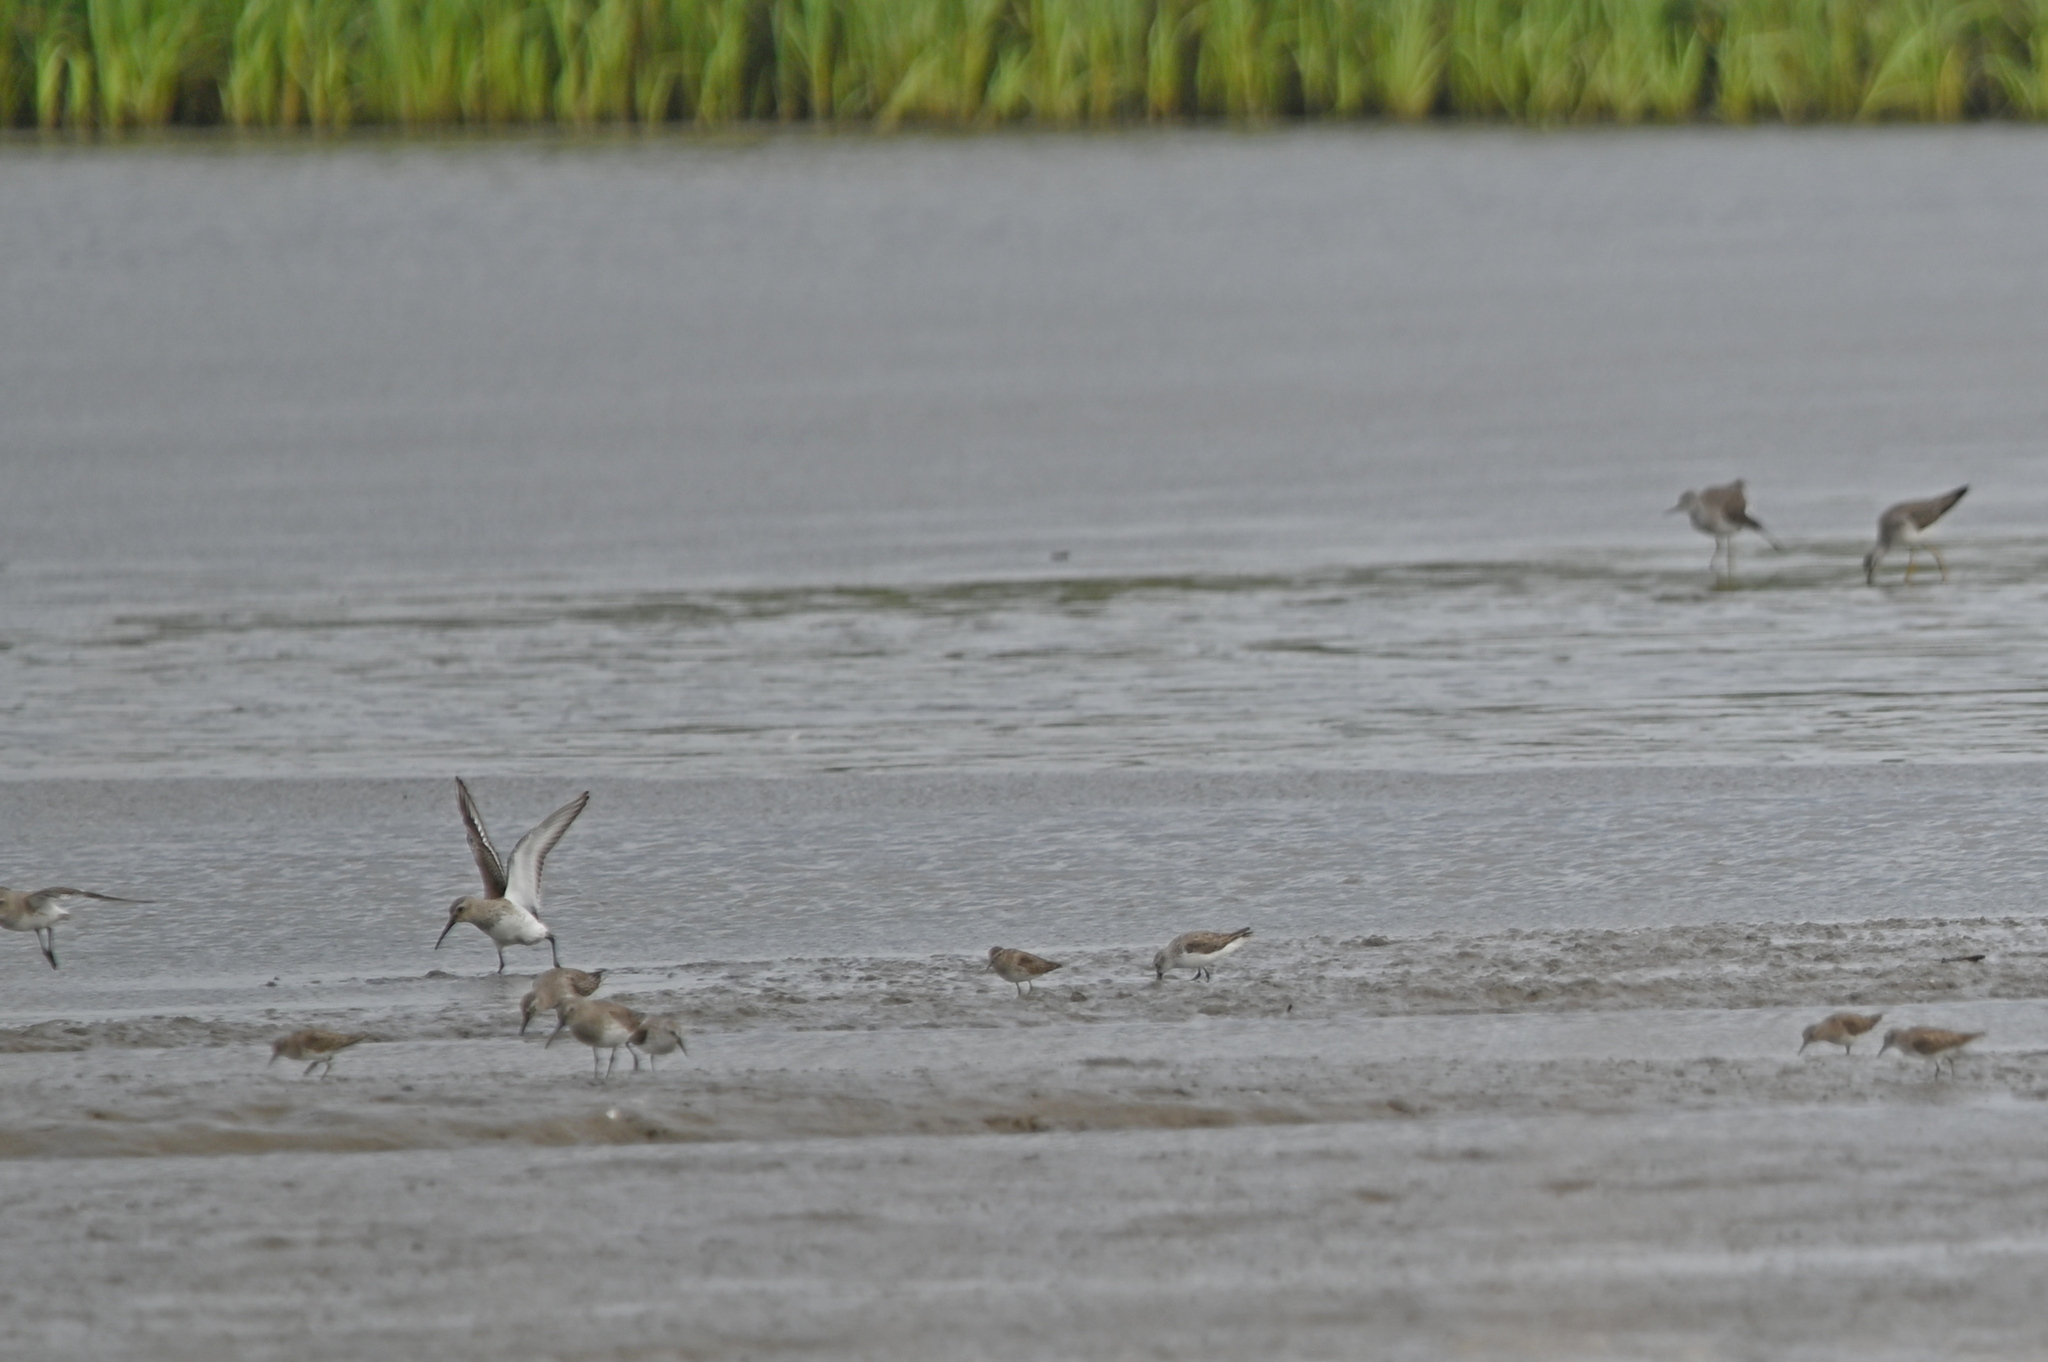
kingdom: Animalia
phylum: Chordata
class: Aves
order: Charadriiformes
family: Scolopacidae
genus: Calidris
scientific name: Calidris alpina
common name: Dunlin
